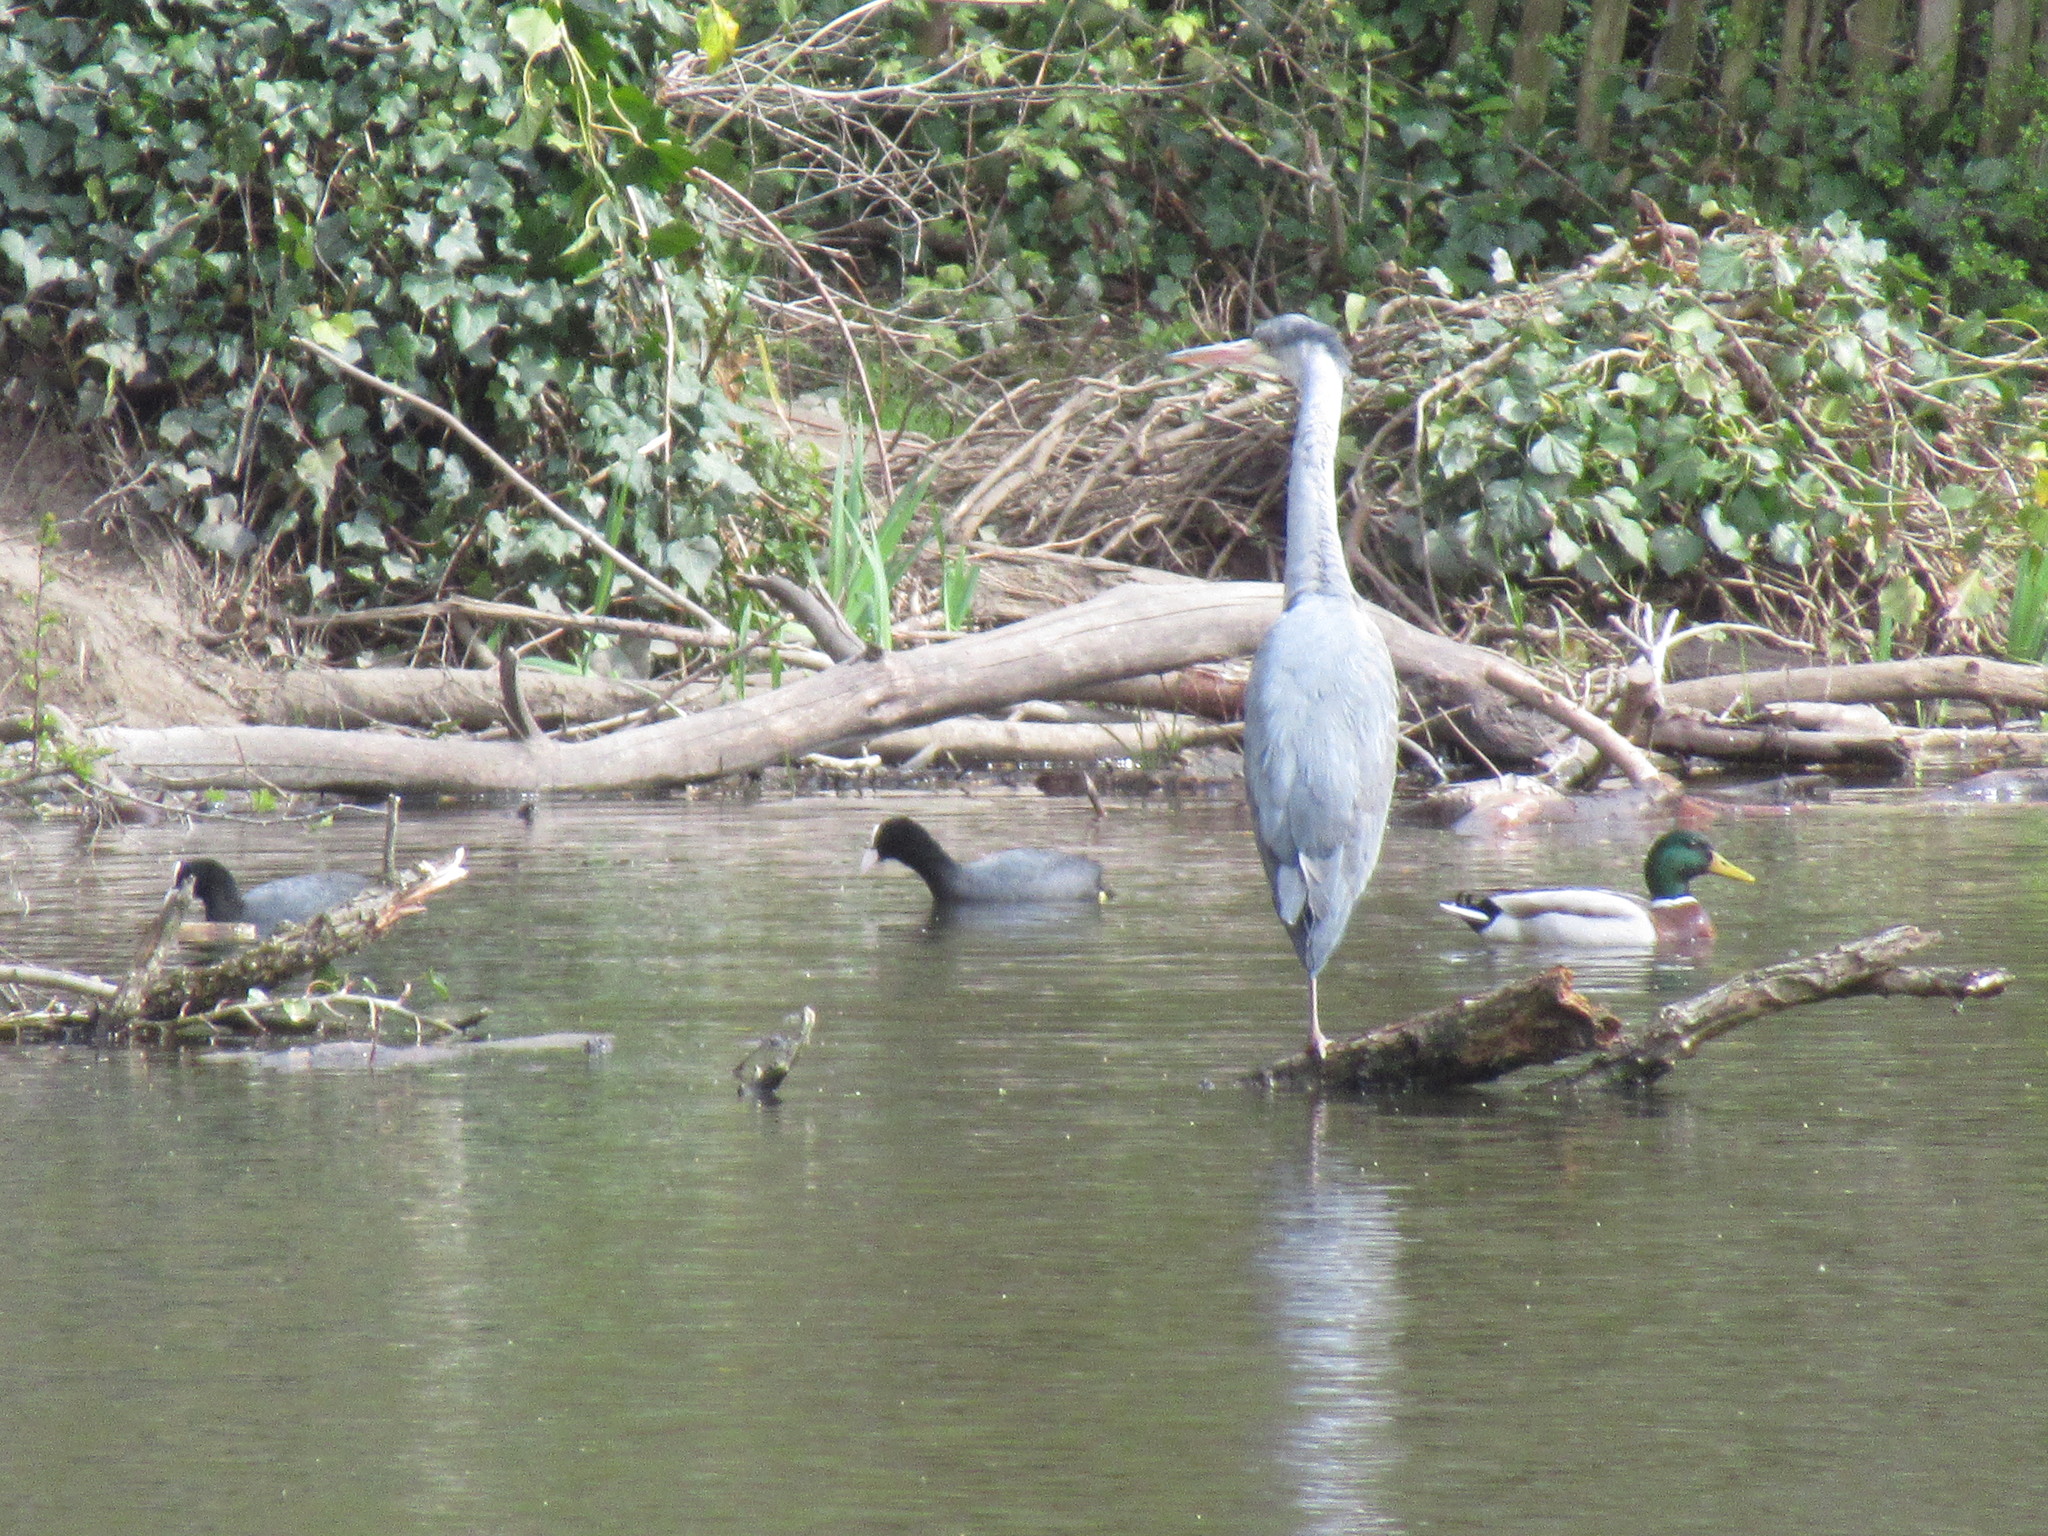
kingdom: Animalia
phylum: Chordata
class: Aves
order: Anseriformes
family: Anatidae
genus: Anas
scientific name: Anas platyrhynchos
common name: Mallard
